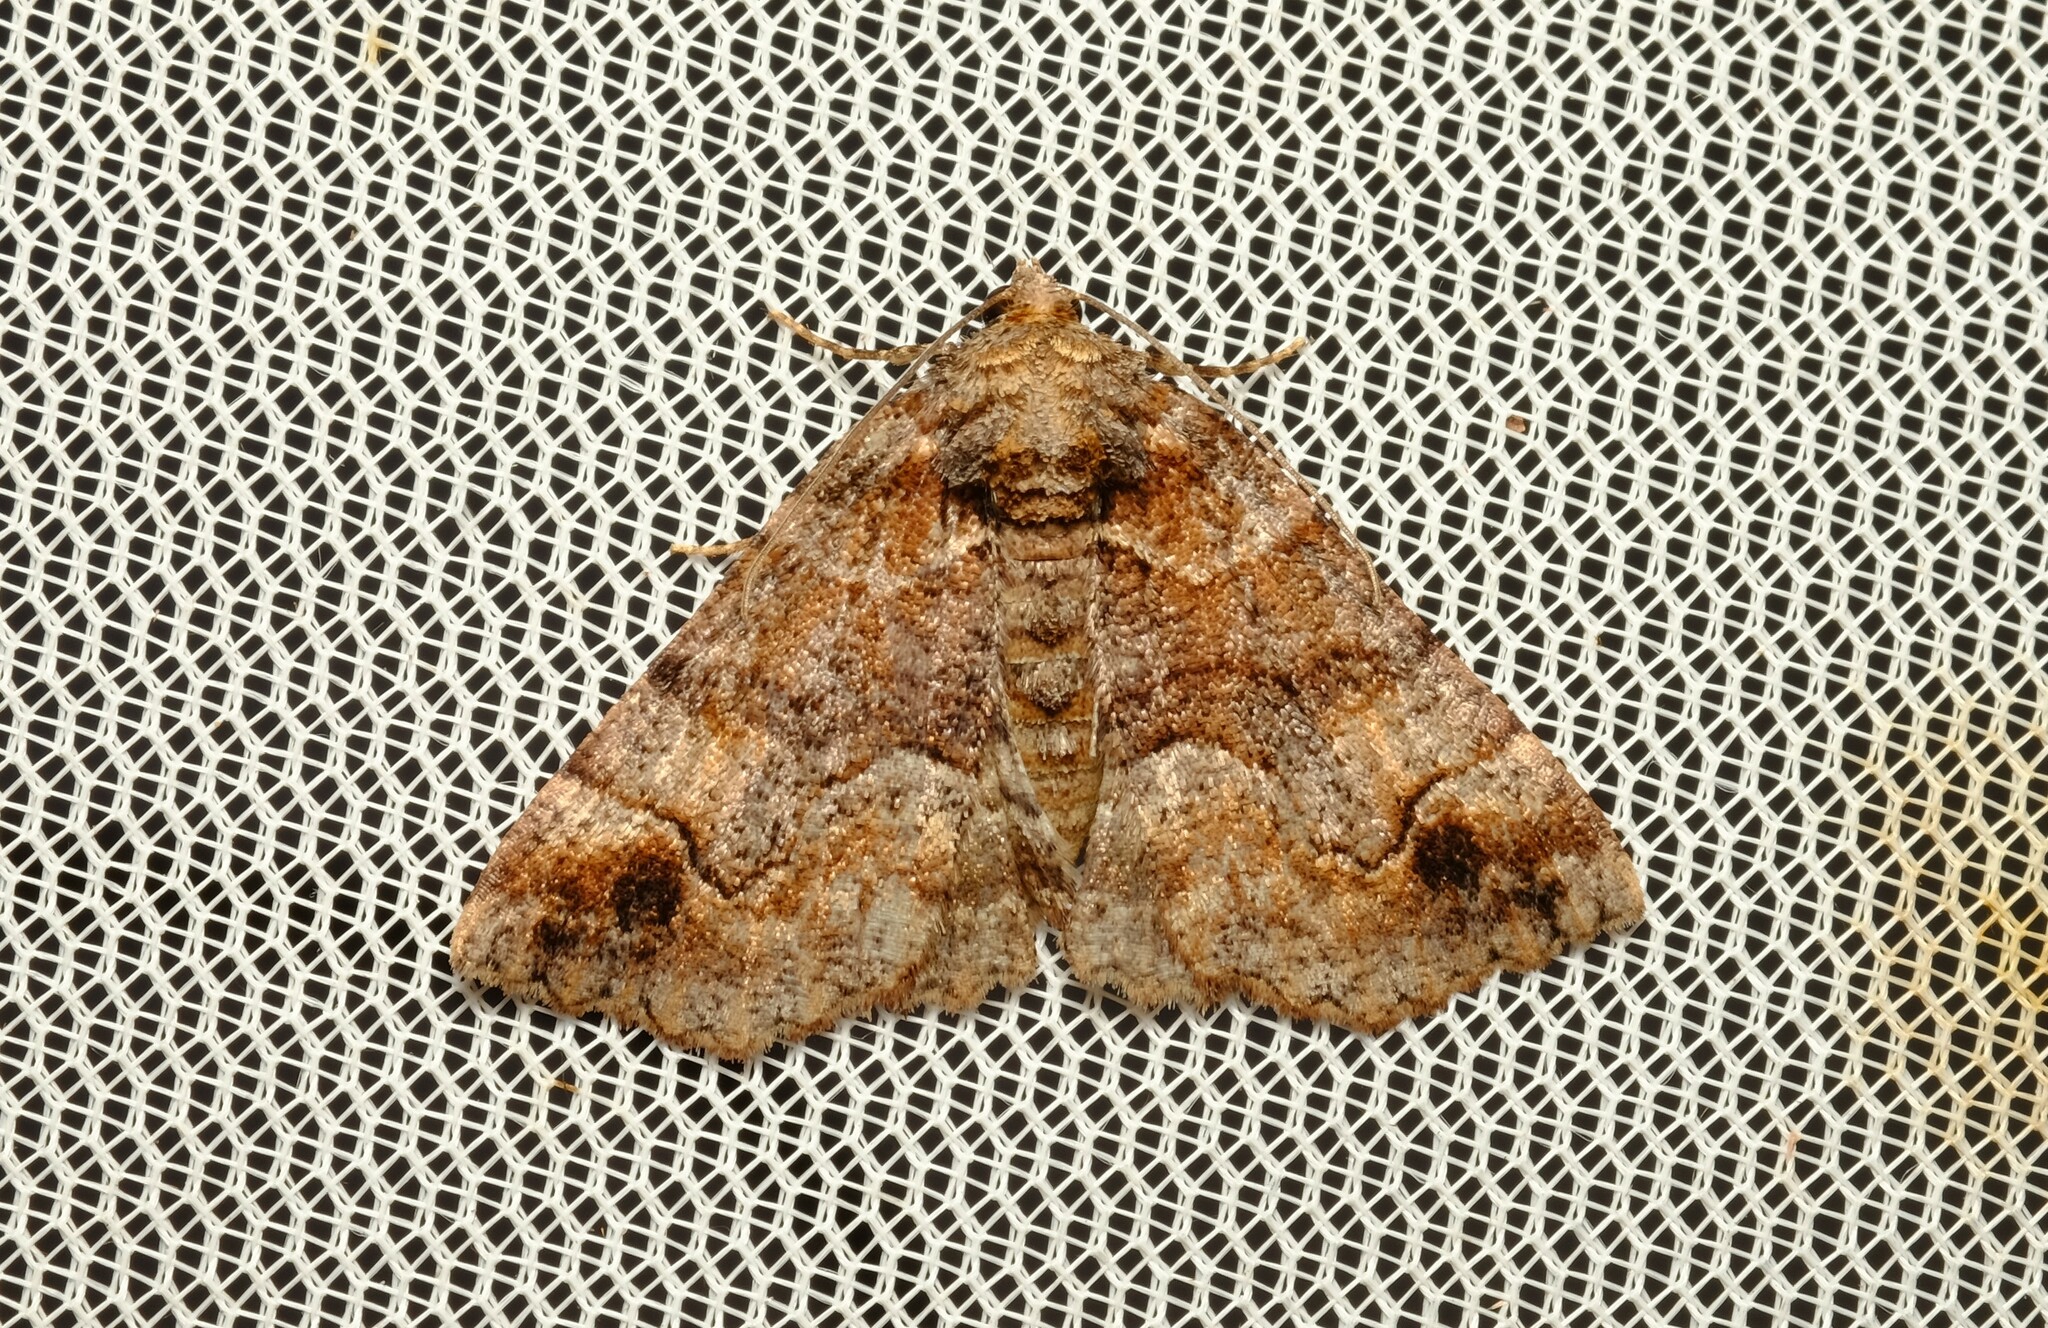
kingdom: Animalia
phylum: Arthropoda
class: Insecta
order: Lepidoptera
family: Geometridae
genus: Gastrina
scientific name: Gastrina cristaria
